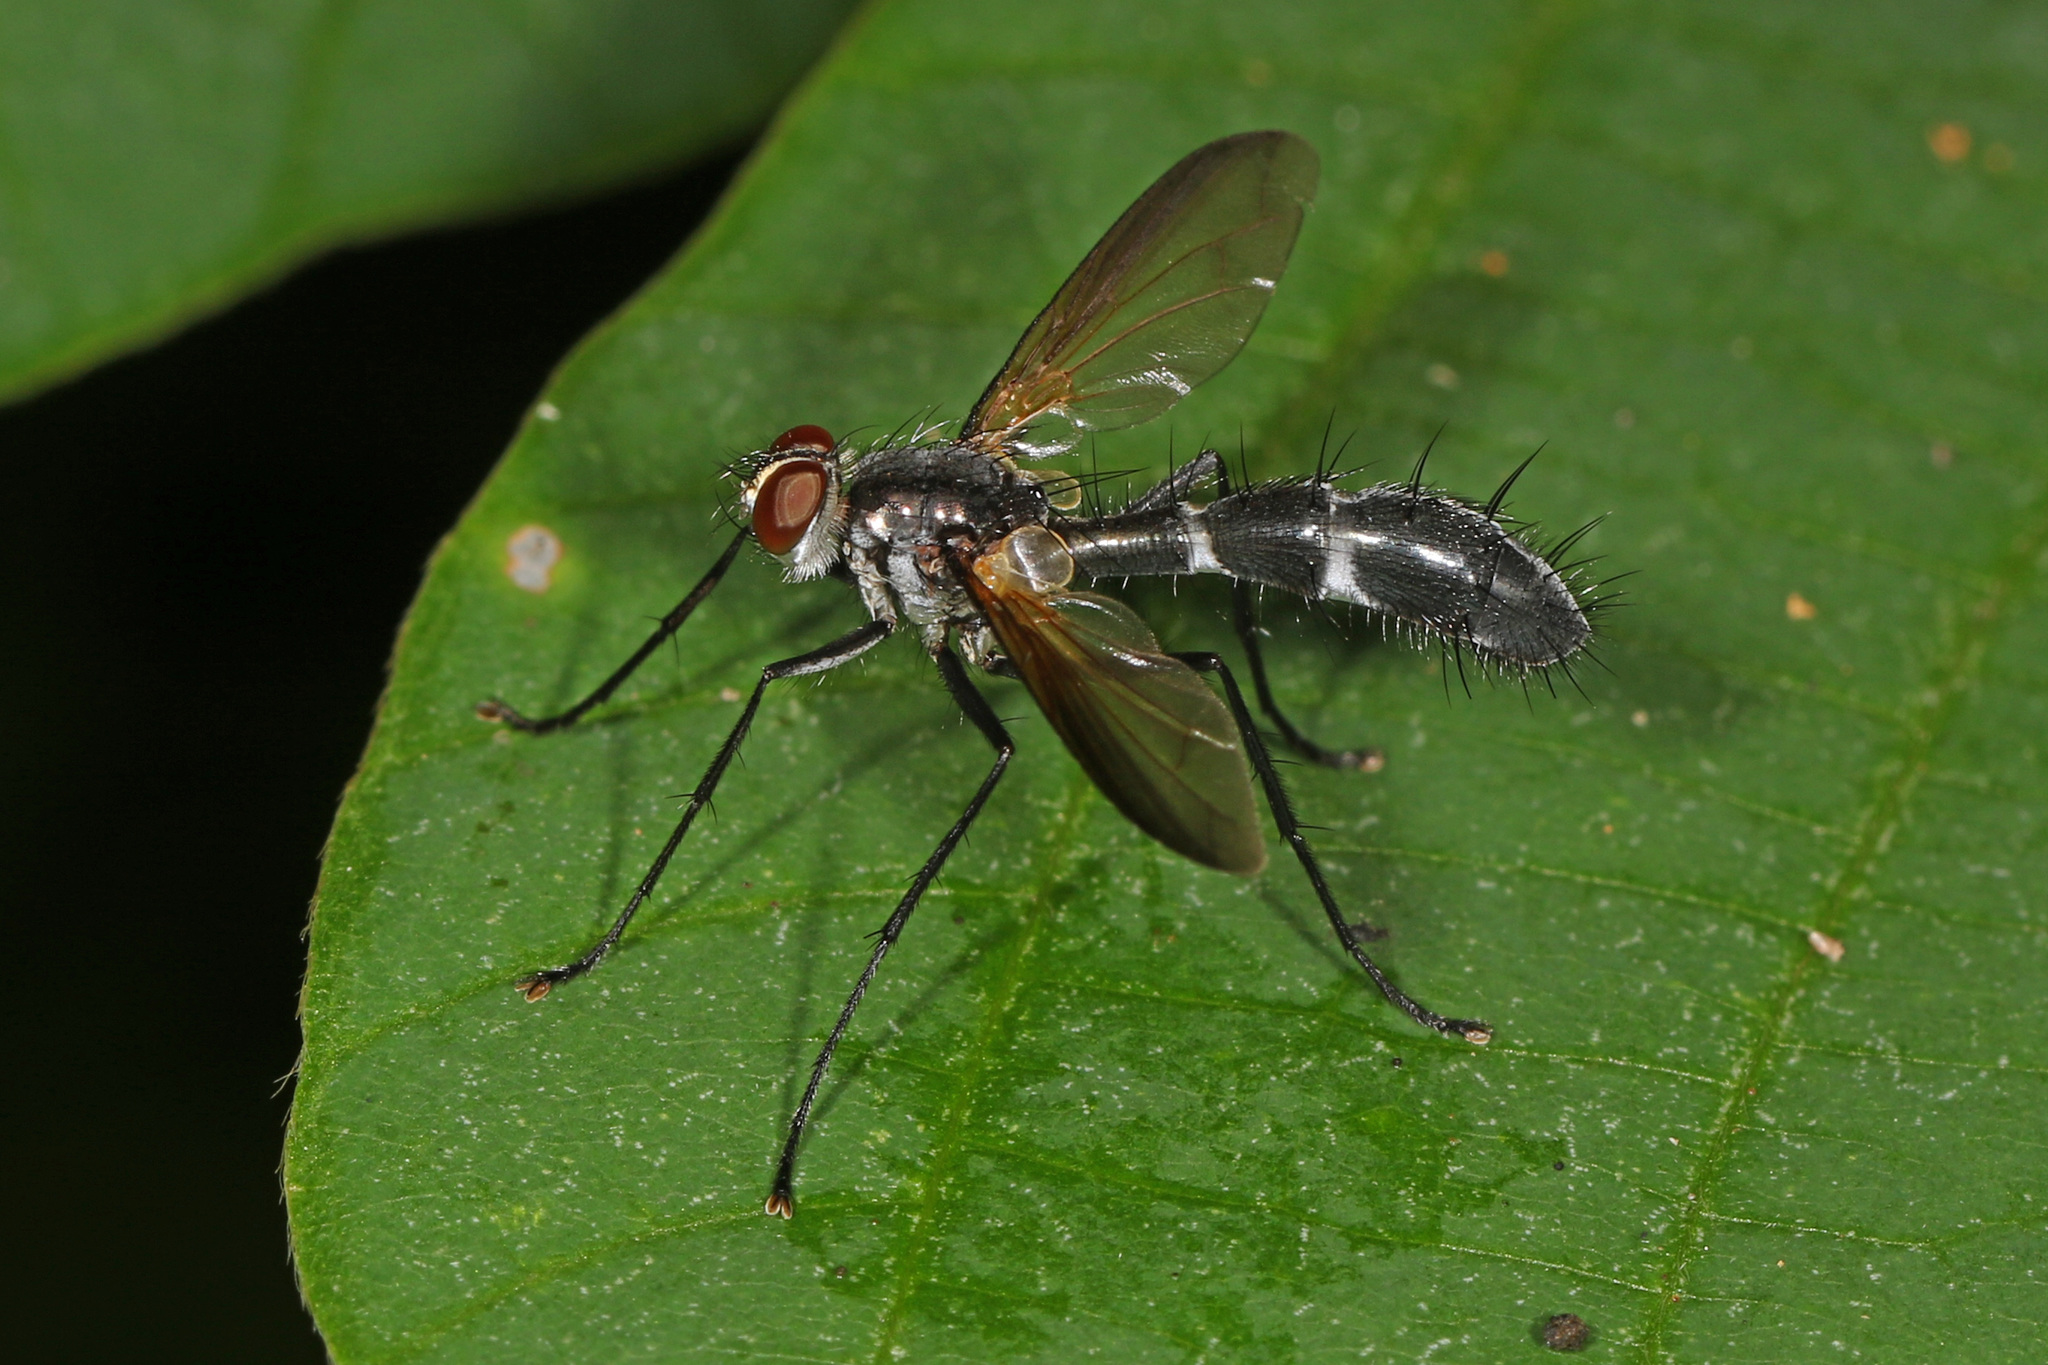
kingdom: Animalia
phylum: Arthropoda
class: Insecta
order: Diptera
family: Tachinidae
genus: Cordyligaster
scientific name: Cordyligaster septentrionalis
